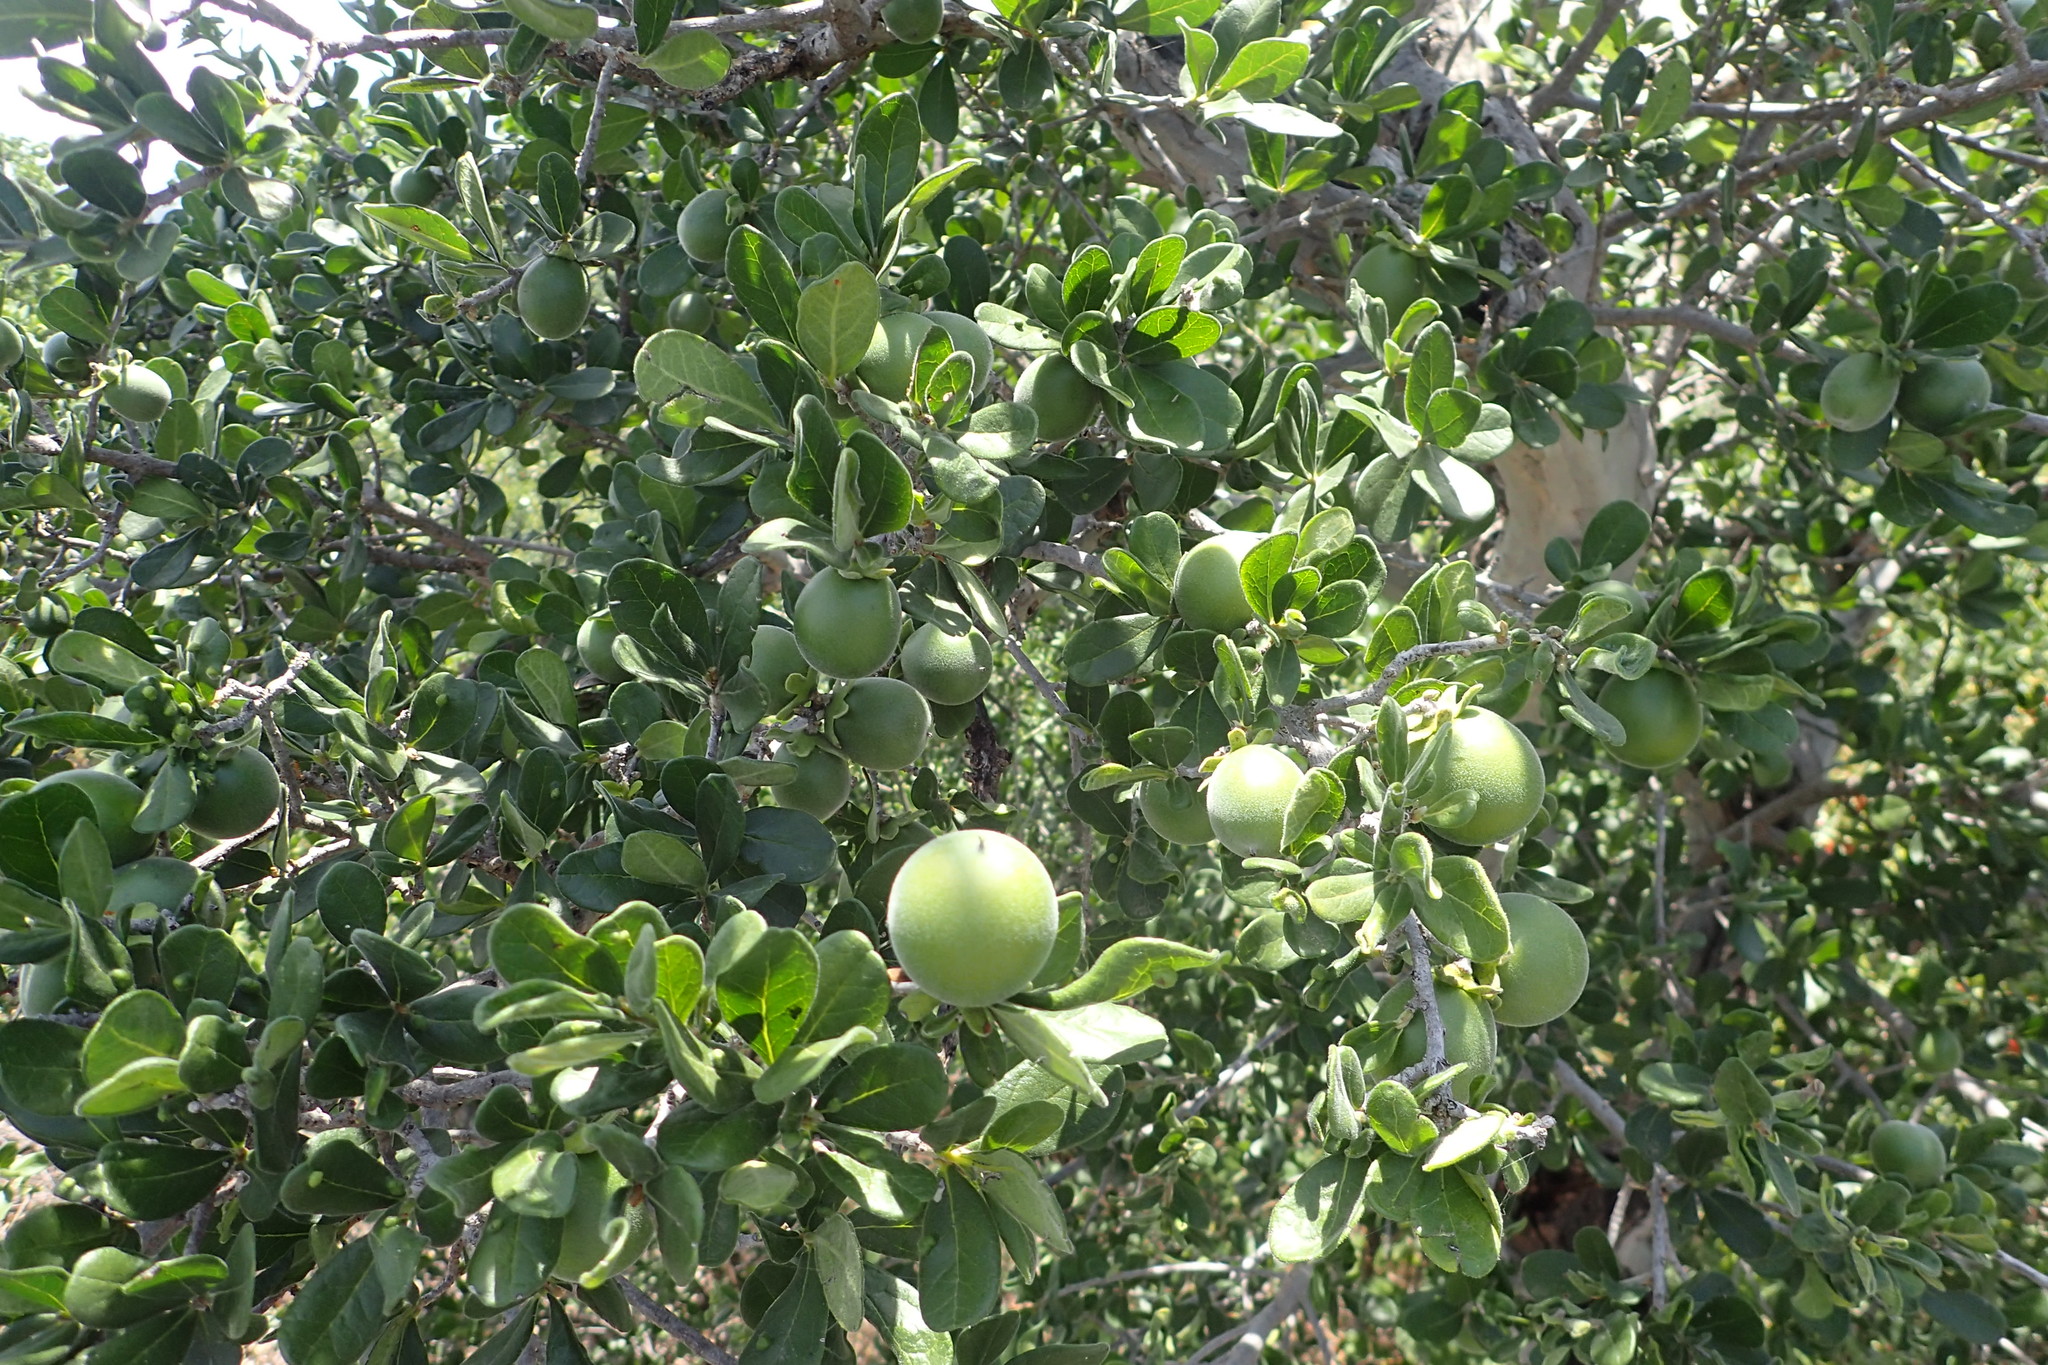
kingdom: Plantae
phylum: Tracheophyta
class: Magnoliopsida
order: Ericales
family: Ebenaceae
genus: Diospyros
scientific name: Diospyros texana
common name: Texas persimmon
